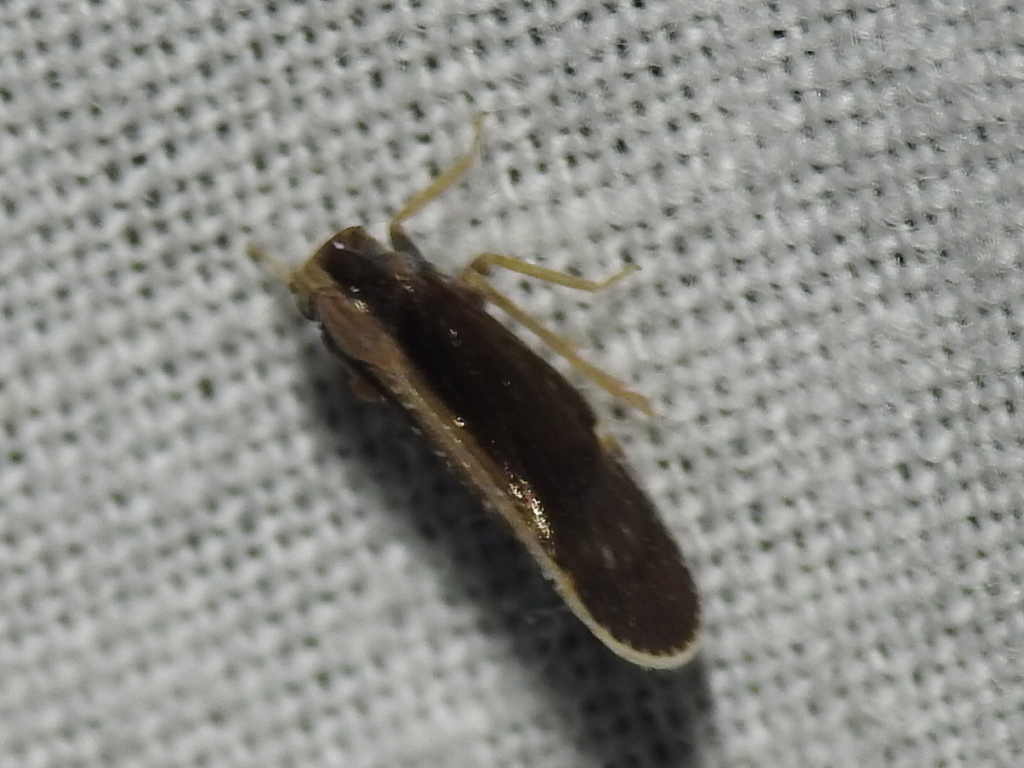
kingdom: Animalia
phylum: Arthropoda
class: Insecta
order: Hemiptera
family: Cixiidae
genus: Pintalia
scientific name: Pintalia delicata
